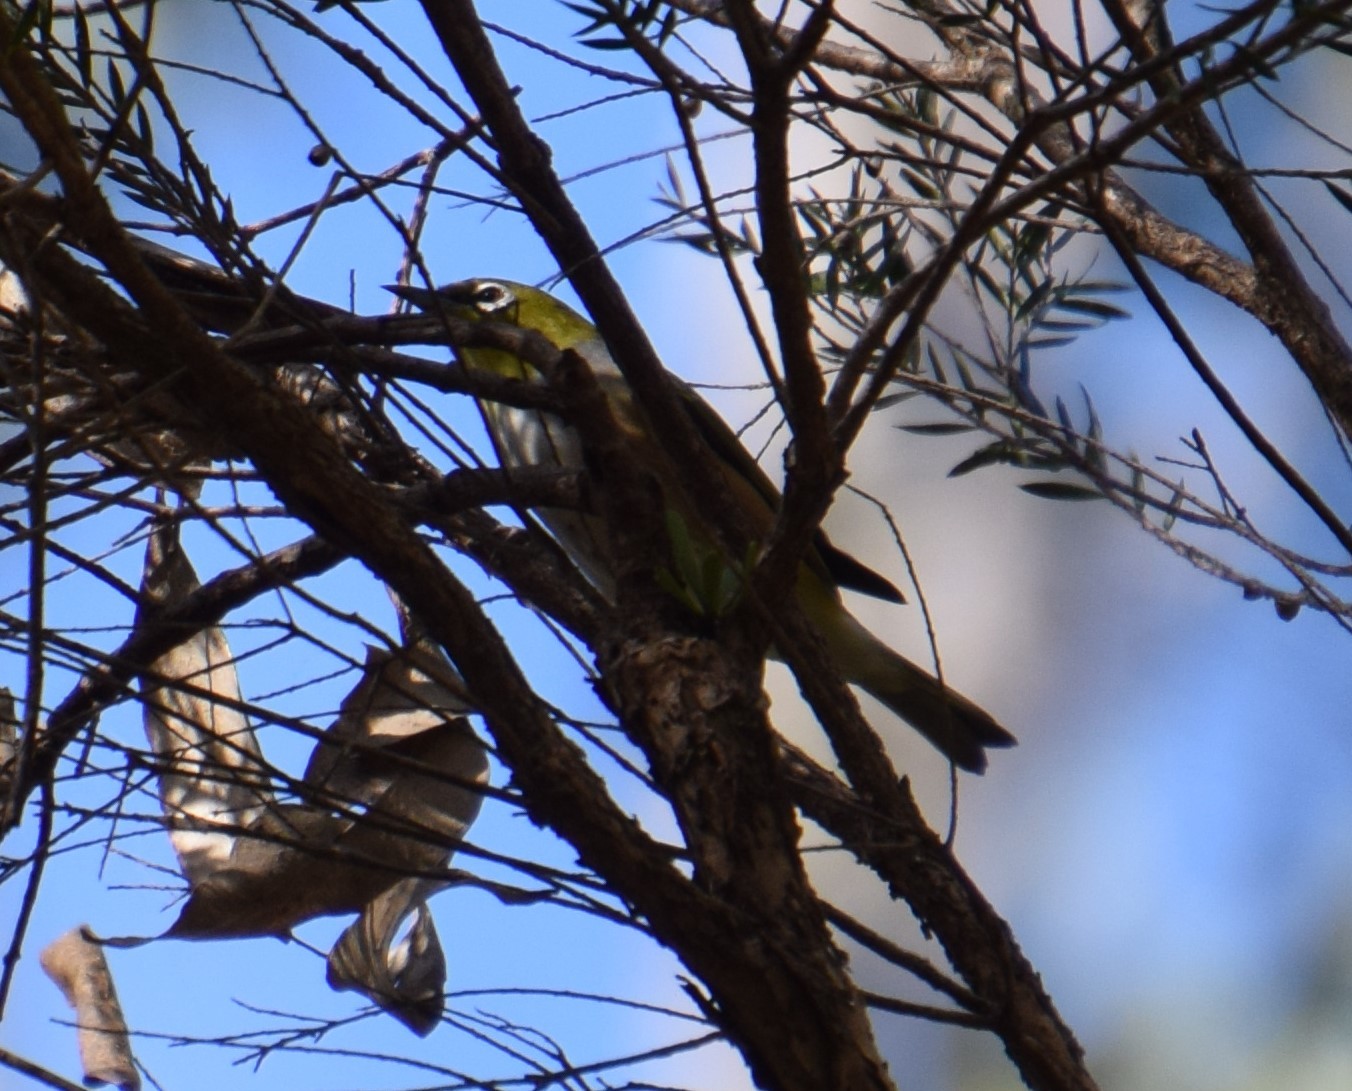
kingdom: Animalia
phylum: Chordata
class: Aves
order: Passeriformes
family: Zosteropidae
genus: Zosterops
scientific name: Zosterops lateralis
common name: Silvereye
